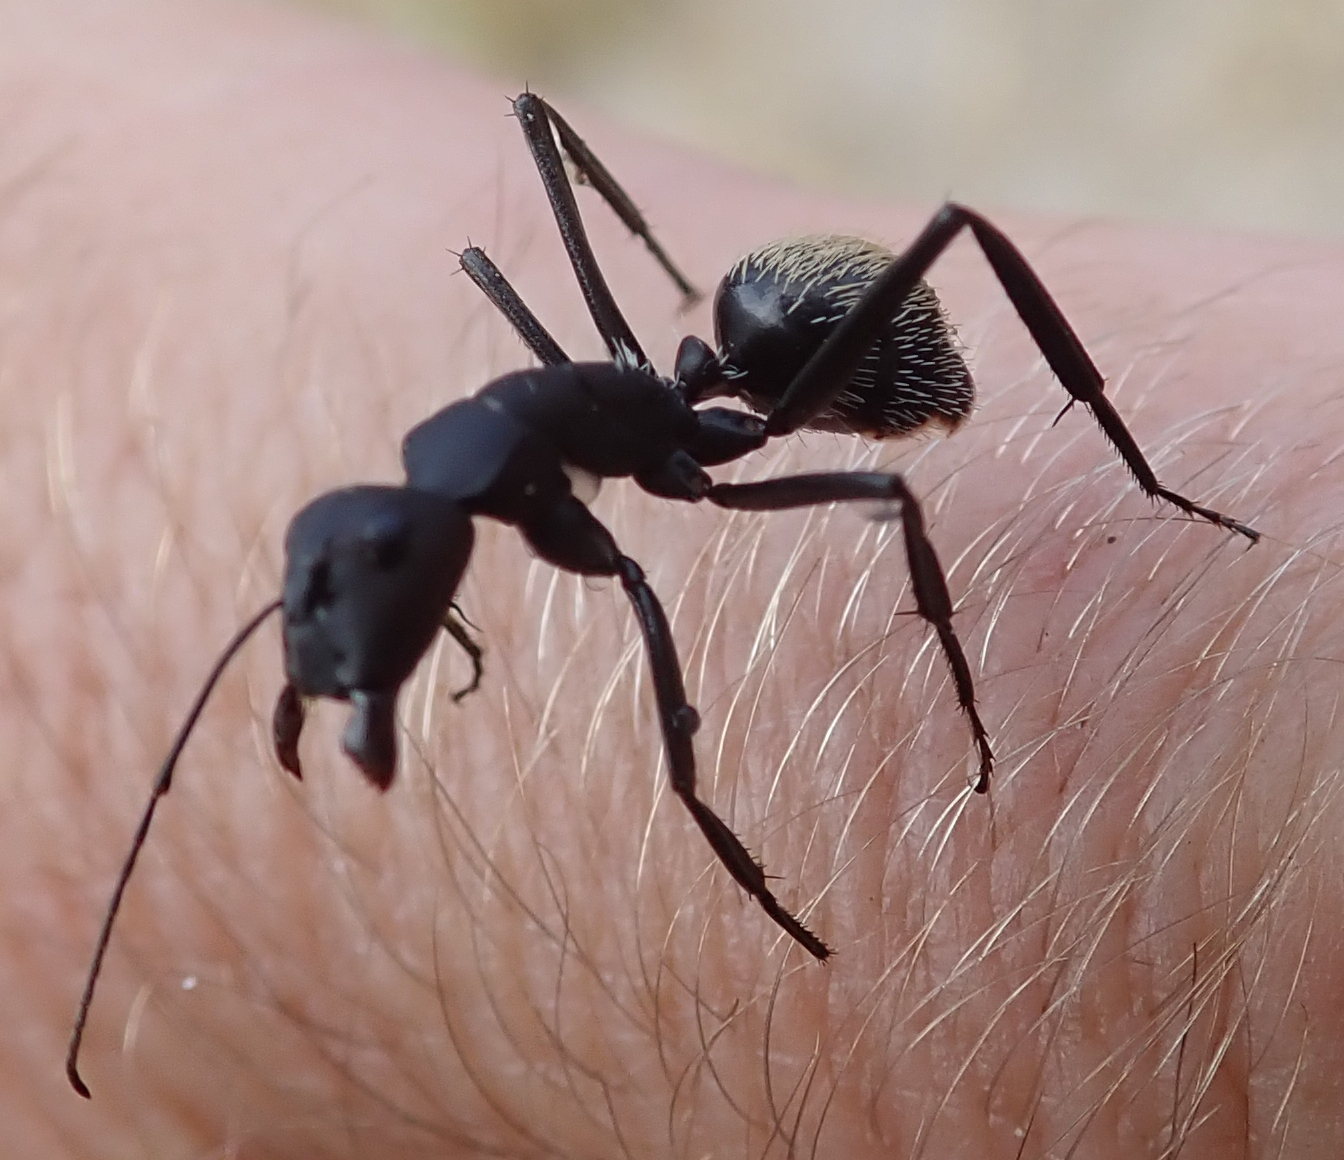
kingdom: Animalia
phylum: Arthropoda
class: Insecta
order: Hymenoptera
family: Formicidae
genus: Camponotus
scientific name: Camponotus fulvopilosus
